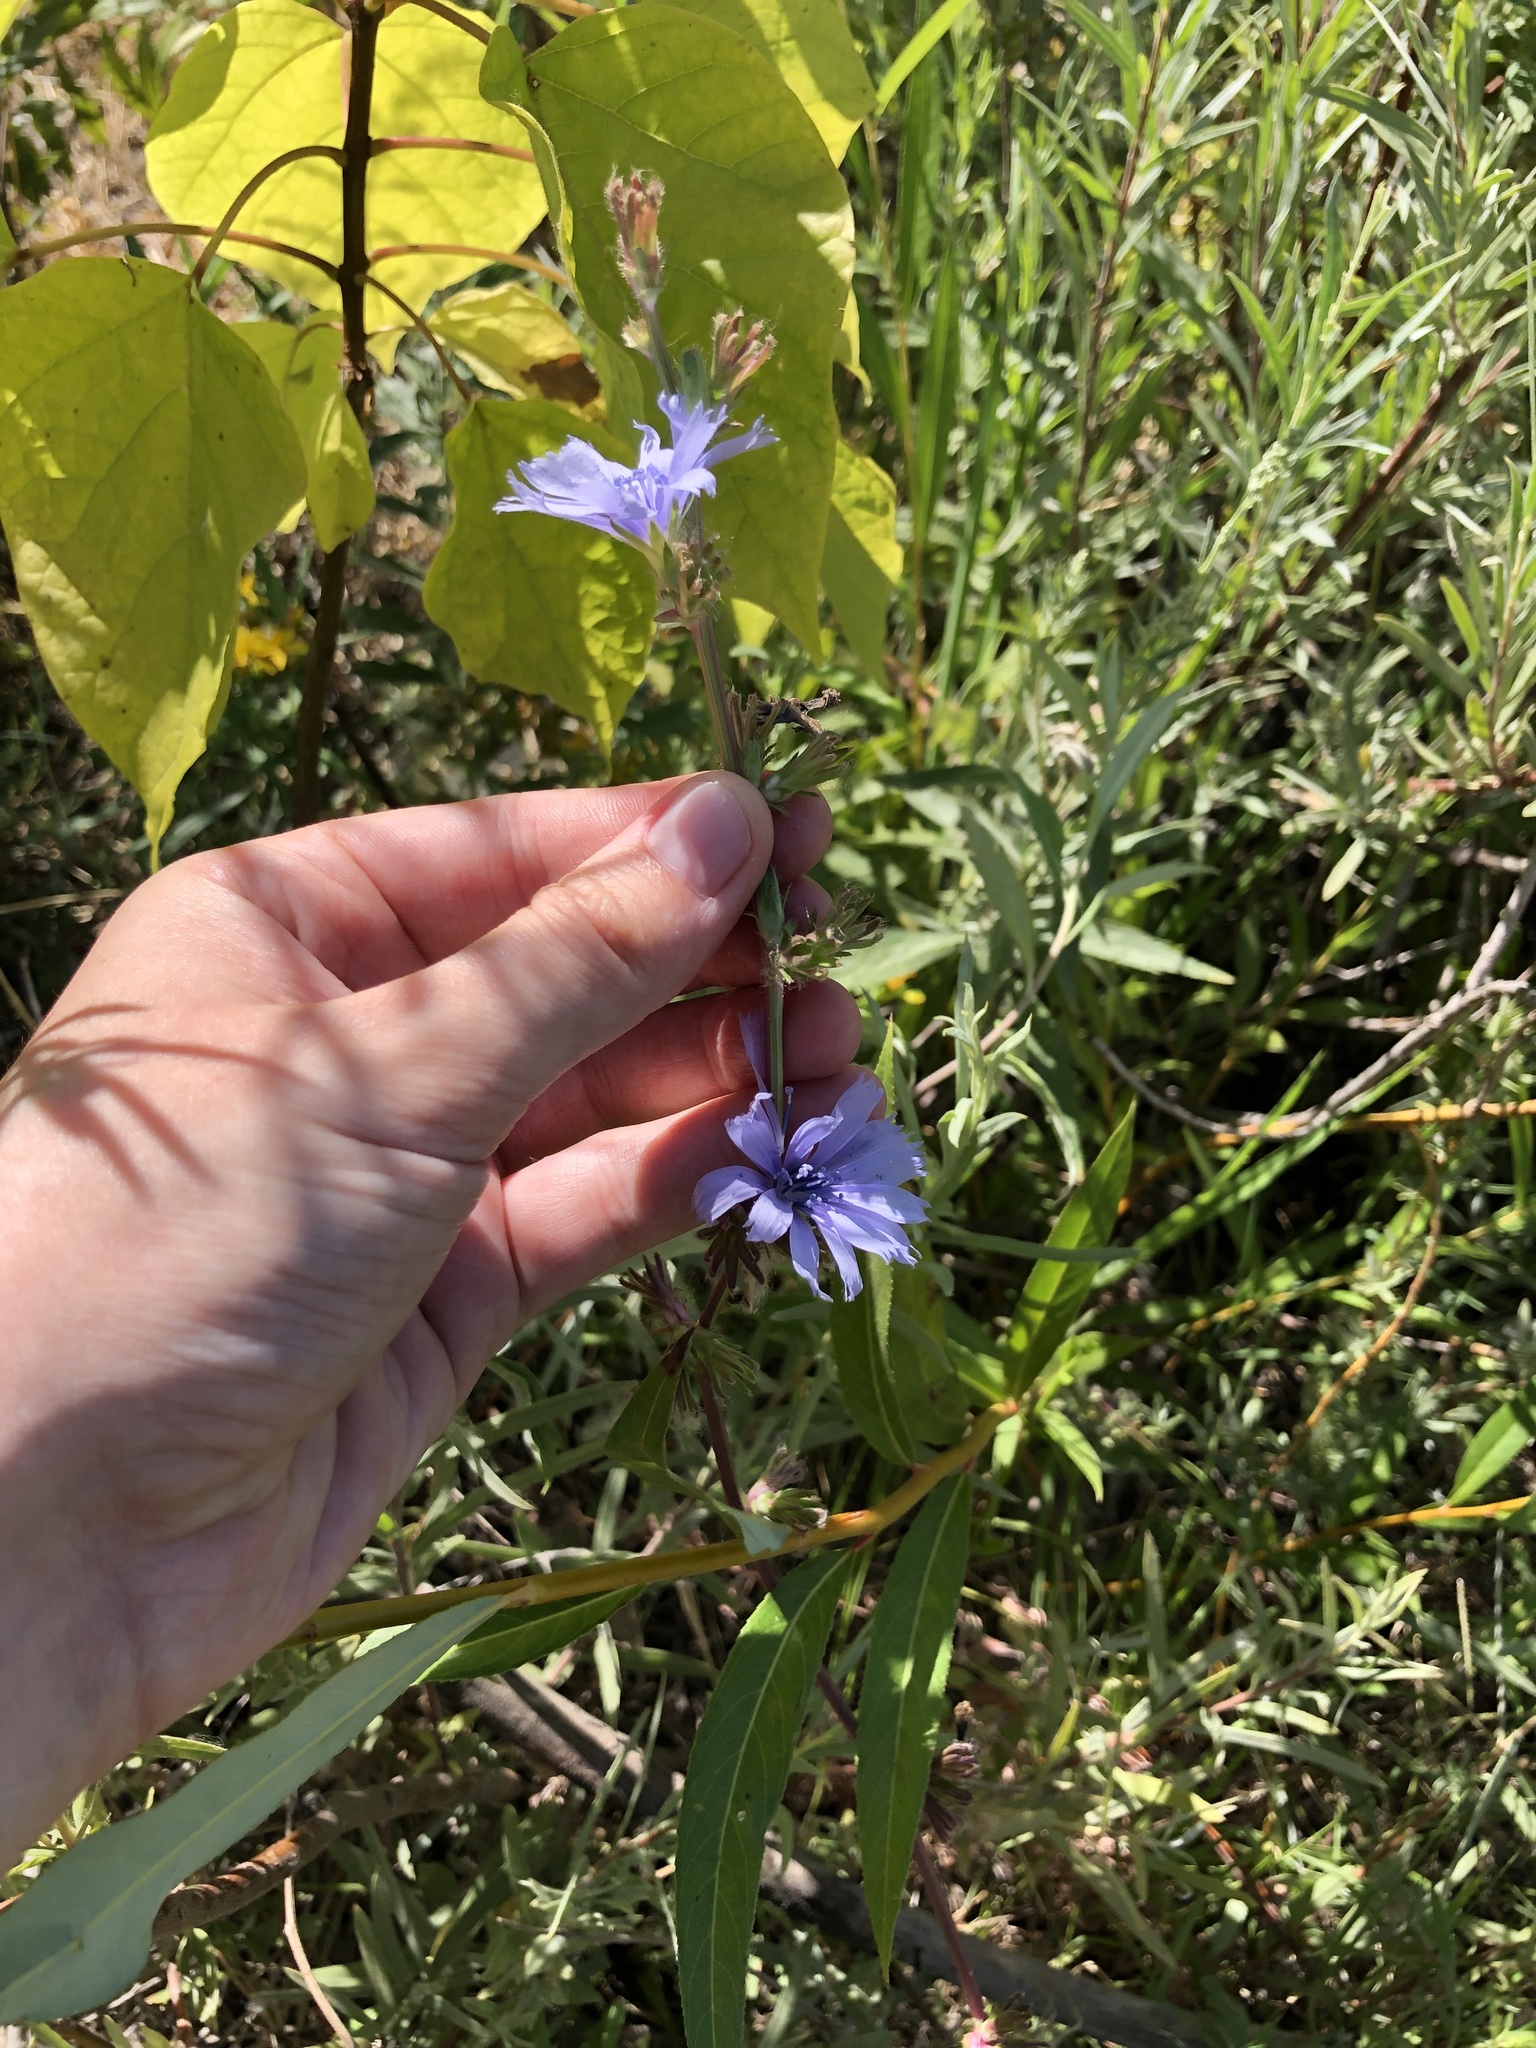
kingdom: Plantae
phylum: Tracheophyta
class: Magnoliopsida
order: Asterales
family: Asteraceae
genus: Cichorium
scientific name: Cichorium intybus
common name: Chicory
